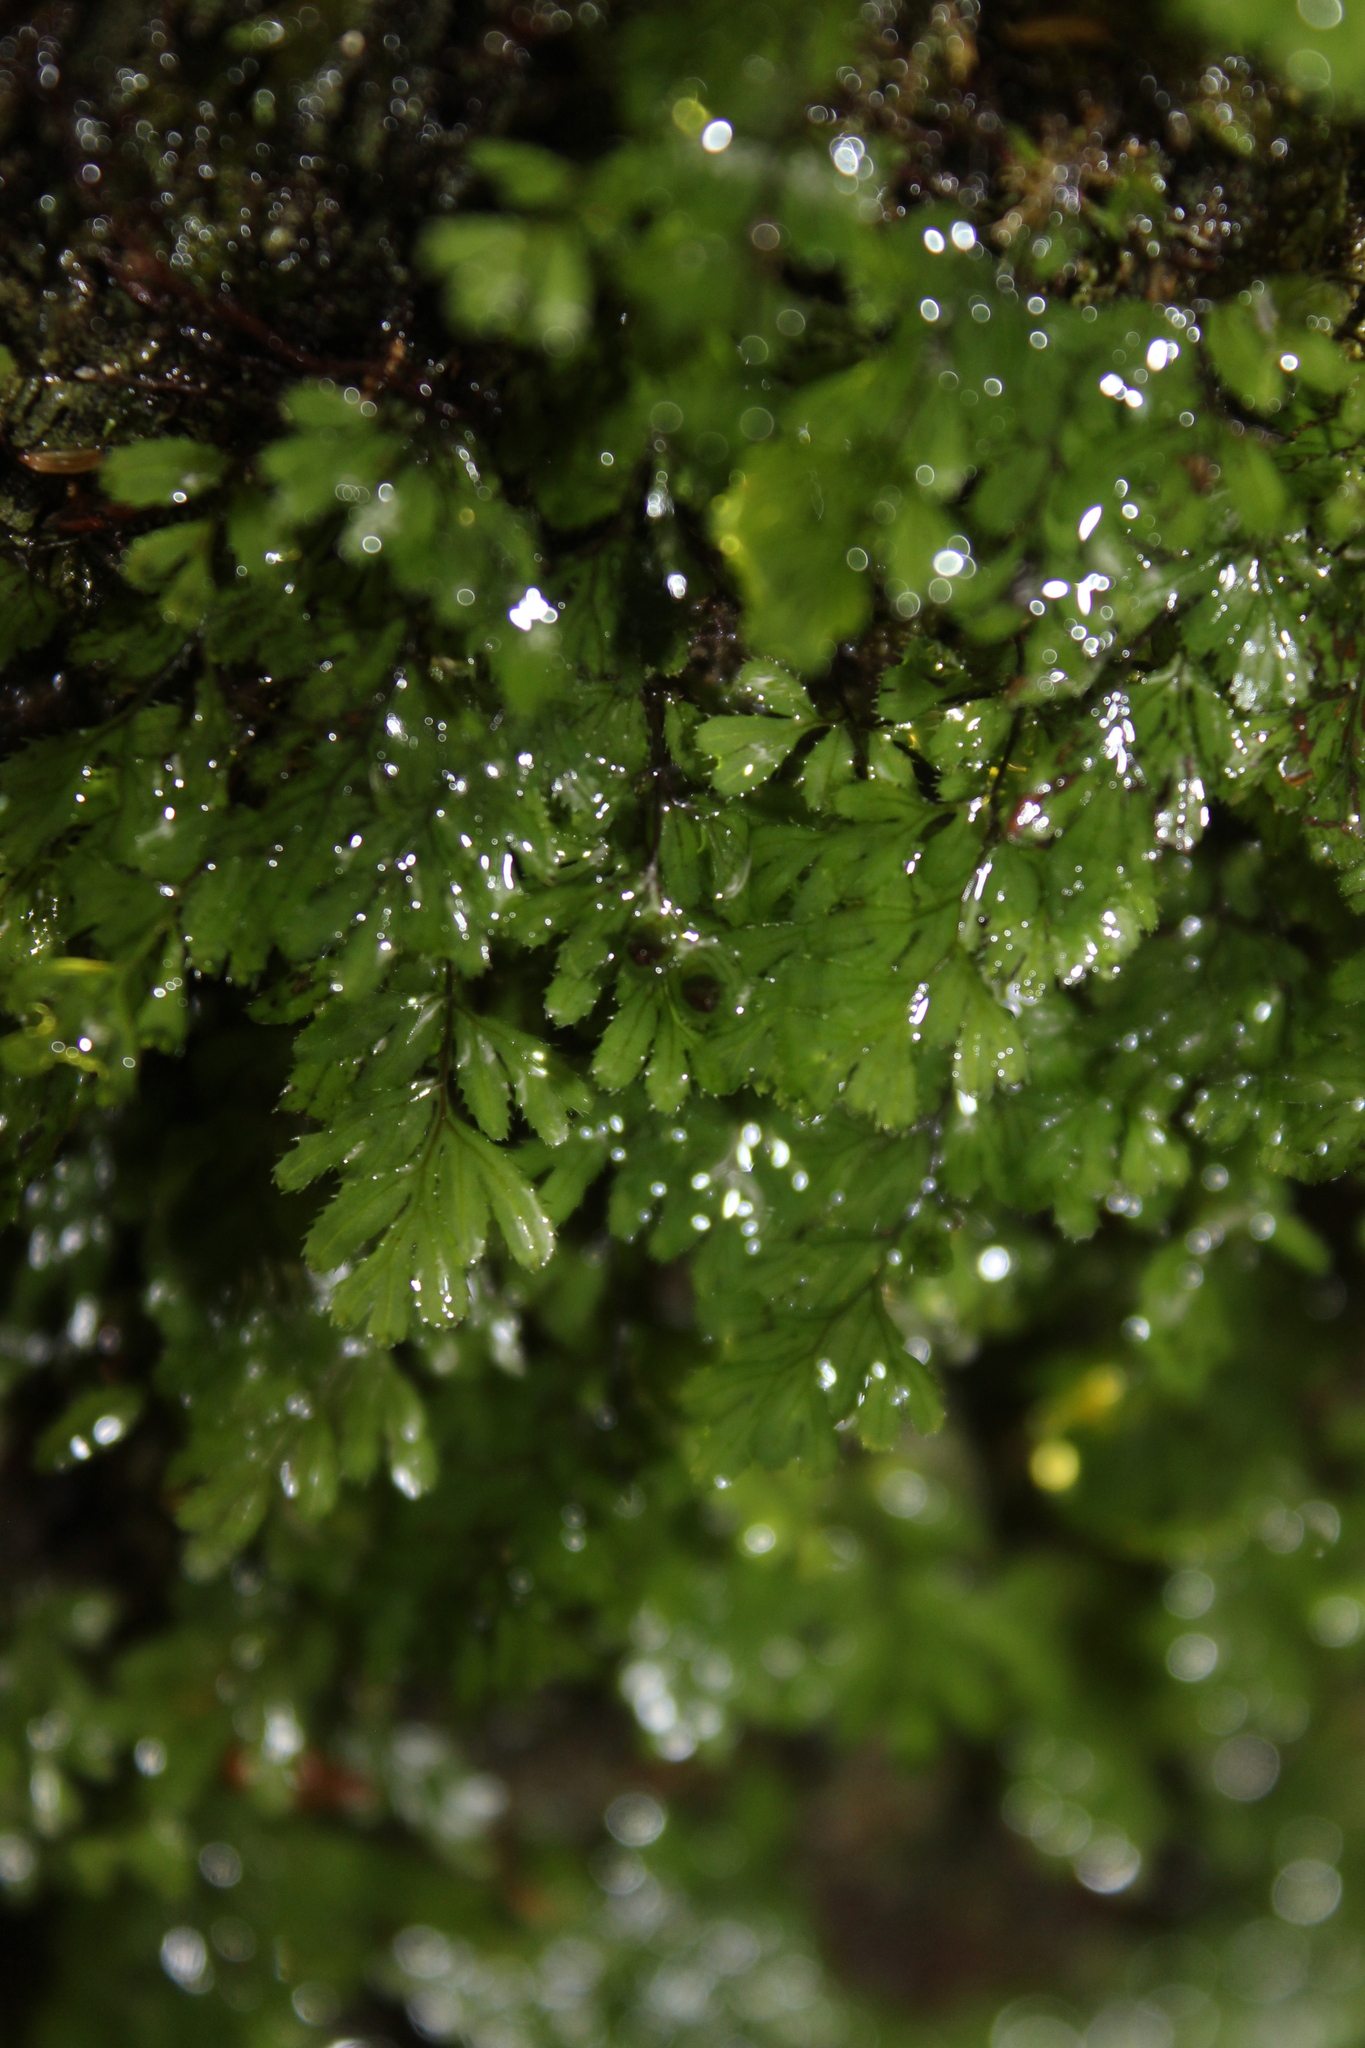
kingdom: Plantae
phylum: Tracheophyta
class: Polypodiopsida
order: Hymenophyllales
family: Hymenophyllaceae
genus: Hymenophyllum
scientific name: Hymenophyllum revolutum
